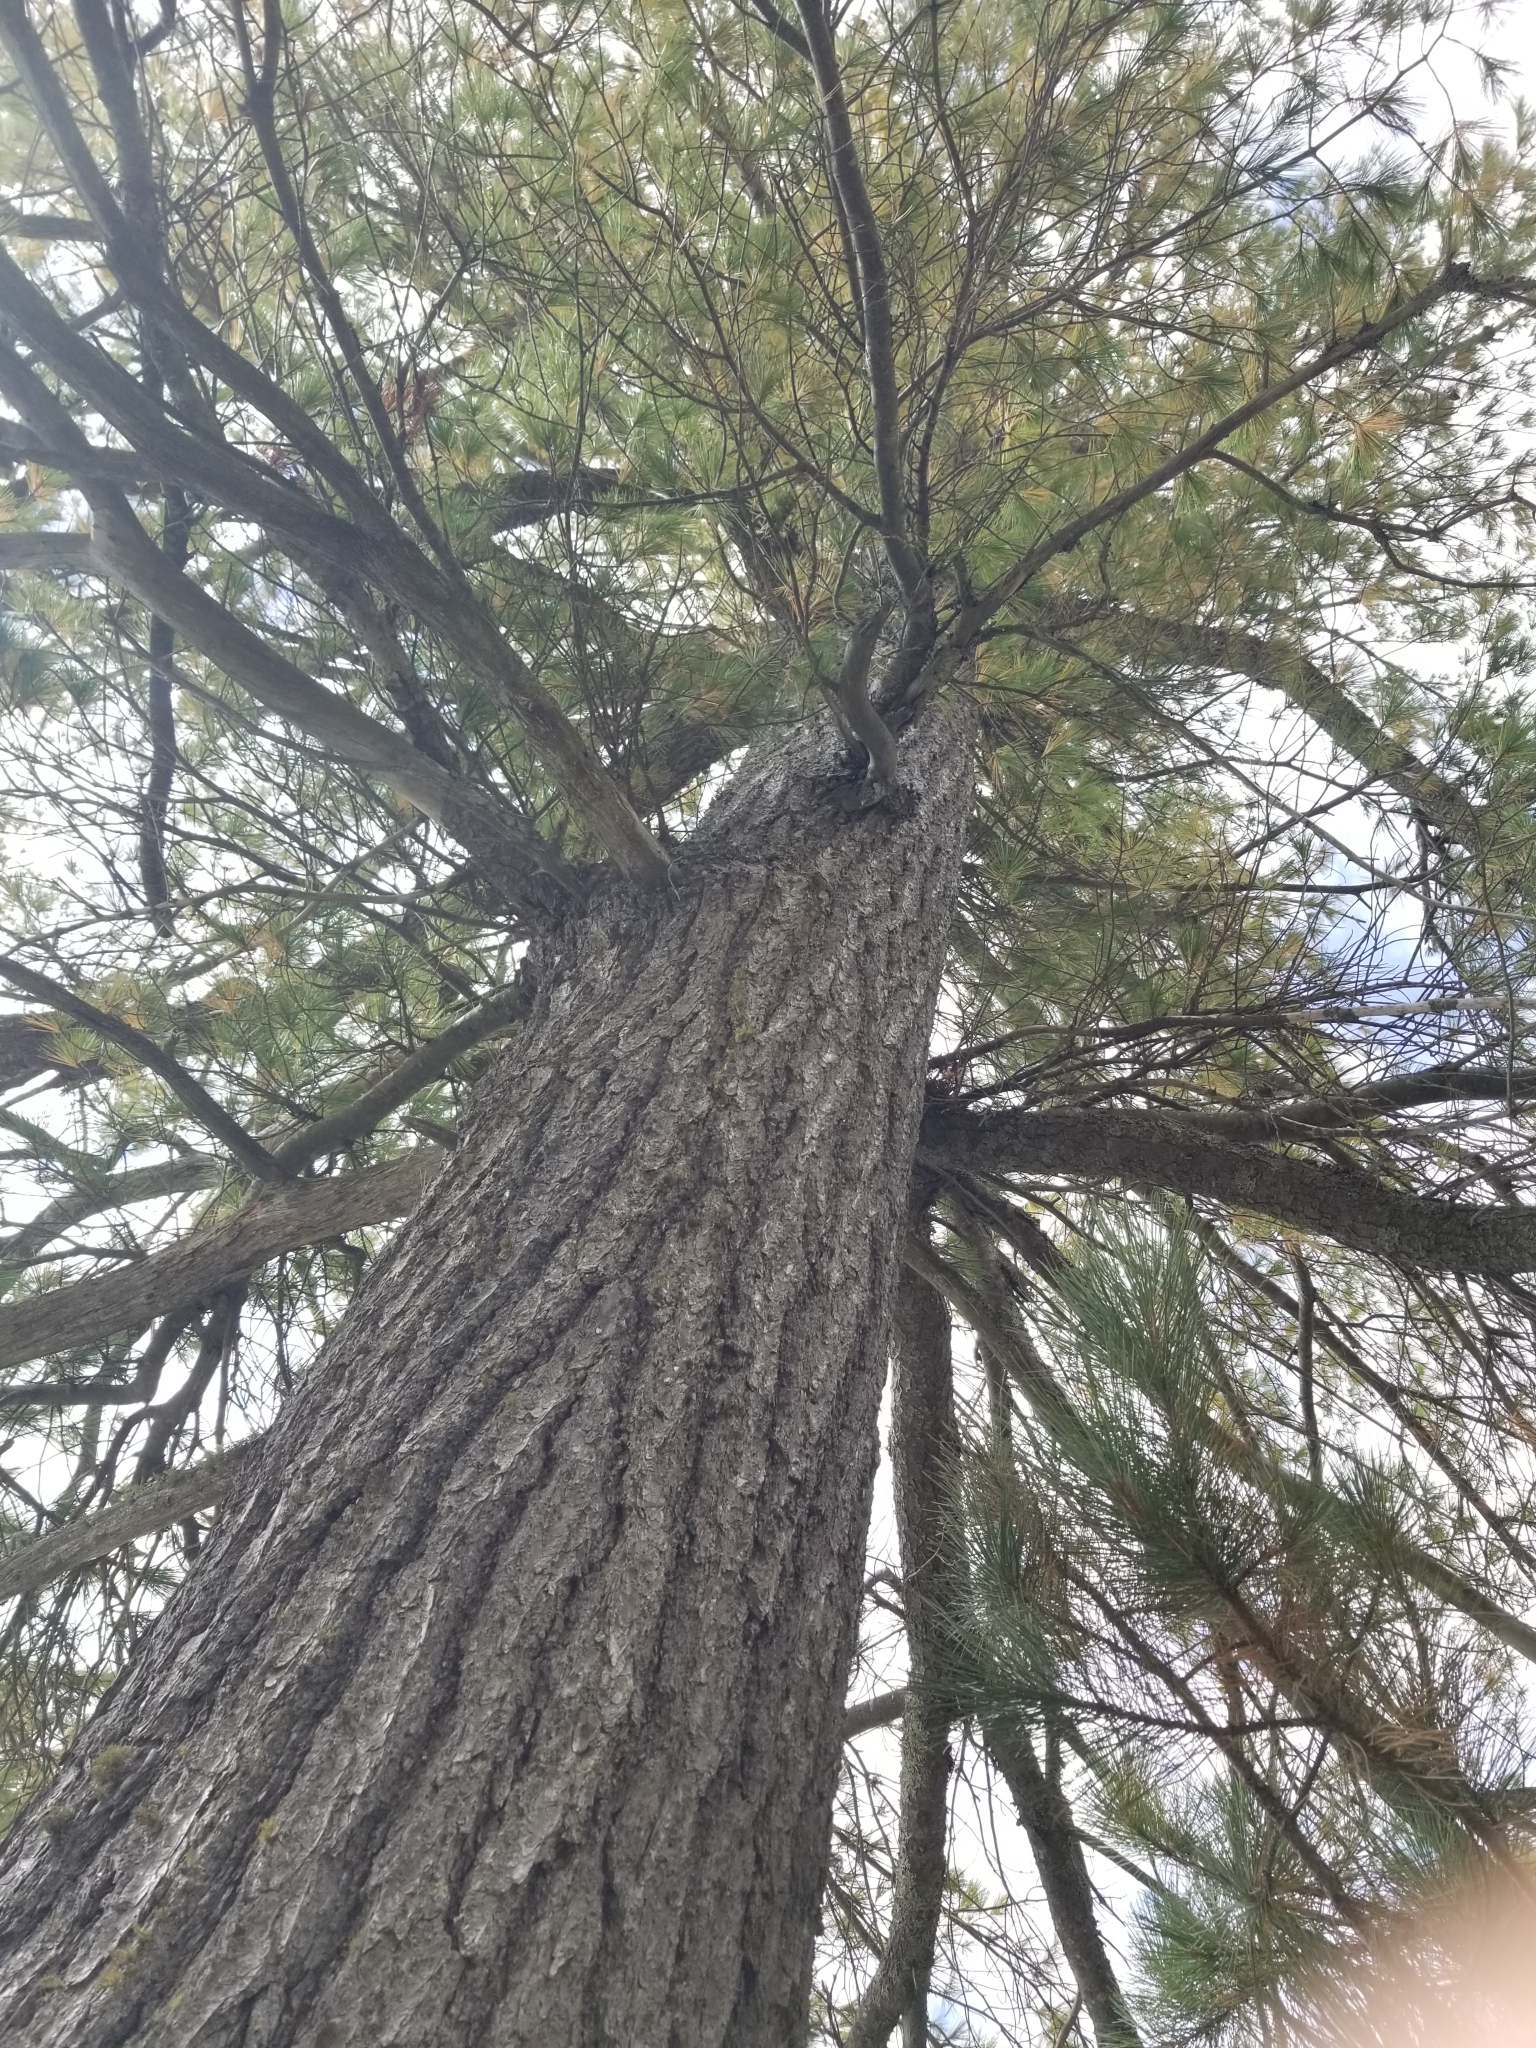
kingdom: Plantae
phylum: Tracheophyta
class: Pinopsida
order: Pinales
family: Pinaceae
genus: Pinus
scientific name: Pinus strobus
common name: Weymouth pine
